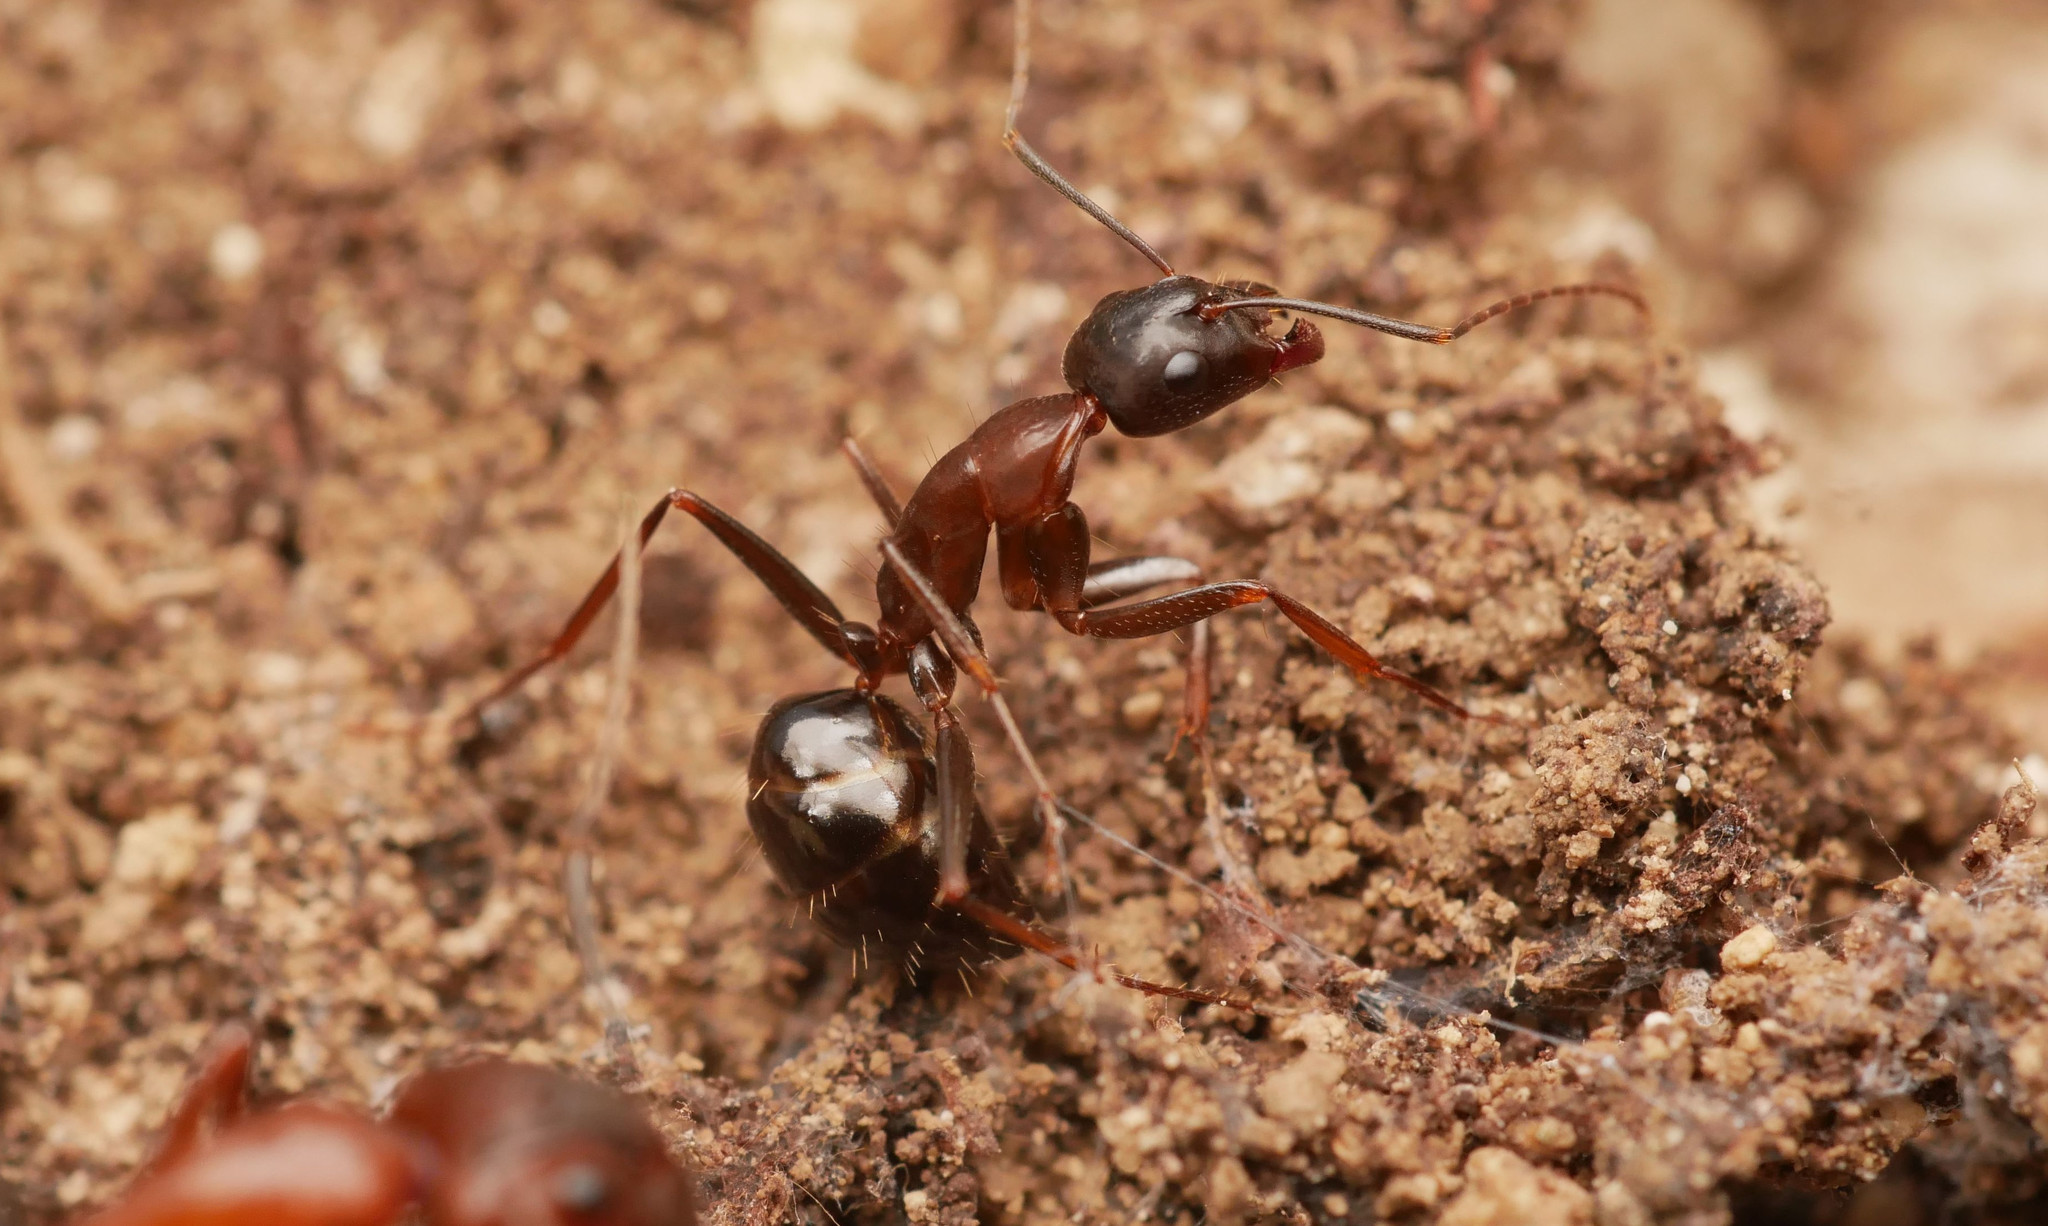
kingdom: Animalia
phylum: Arthropoda
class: Insecta
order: Hymenoptera
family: Formicidae
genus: Camponotus
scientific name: Camponotus sylvaticus
